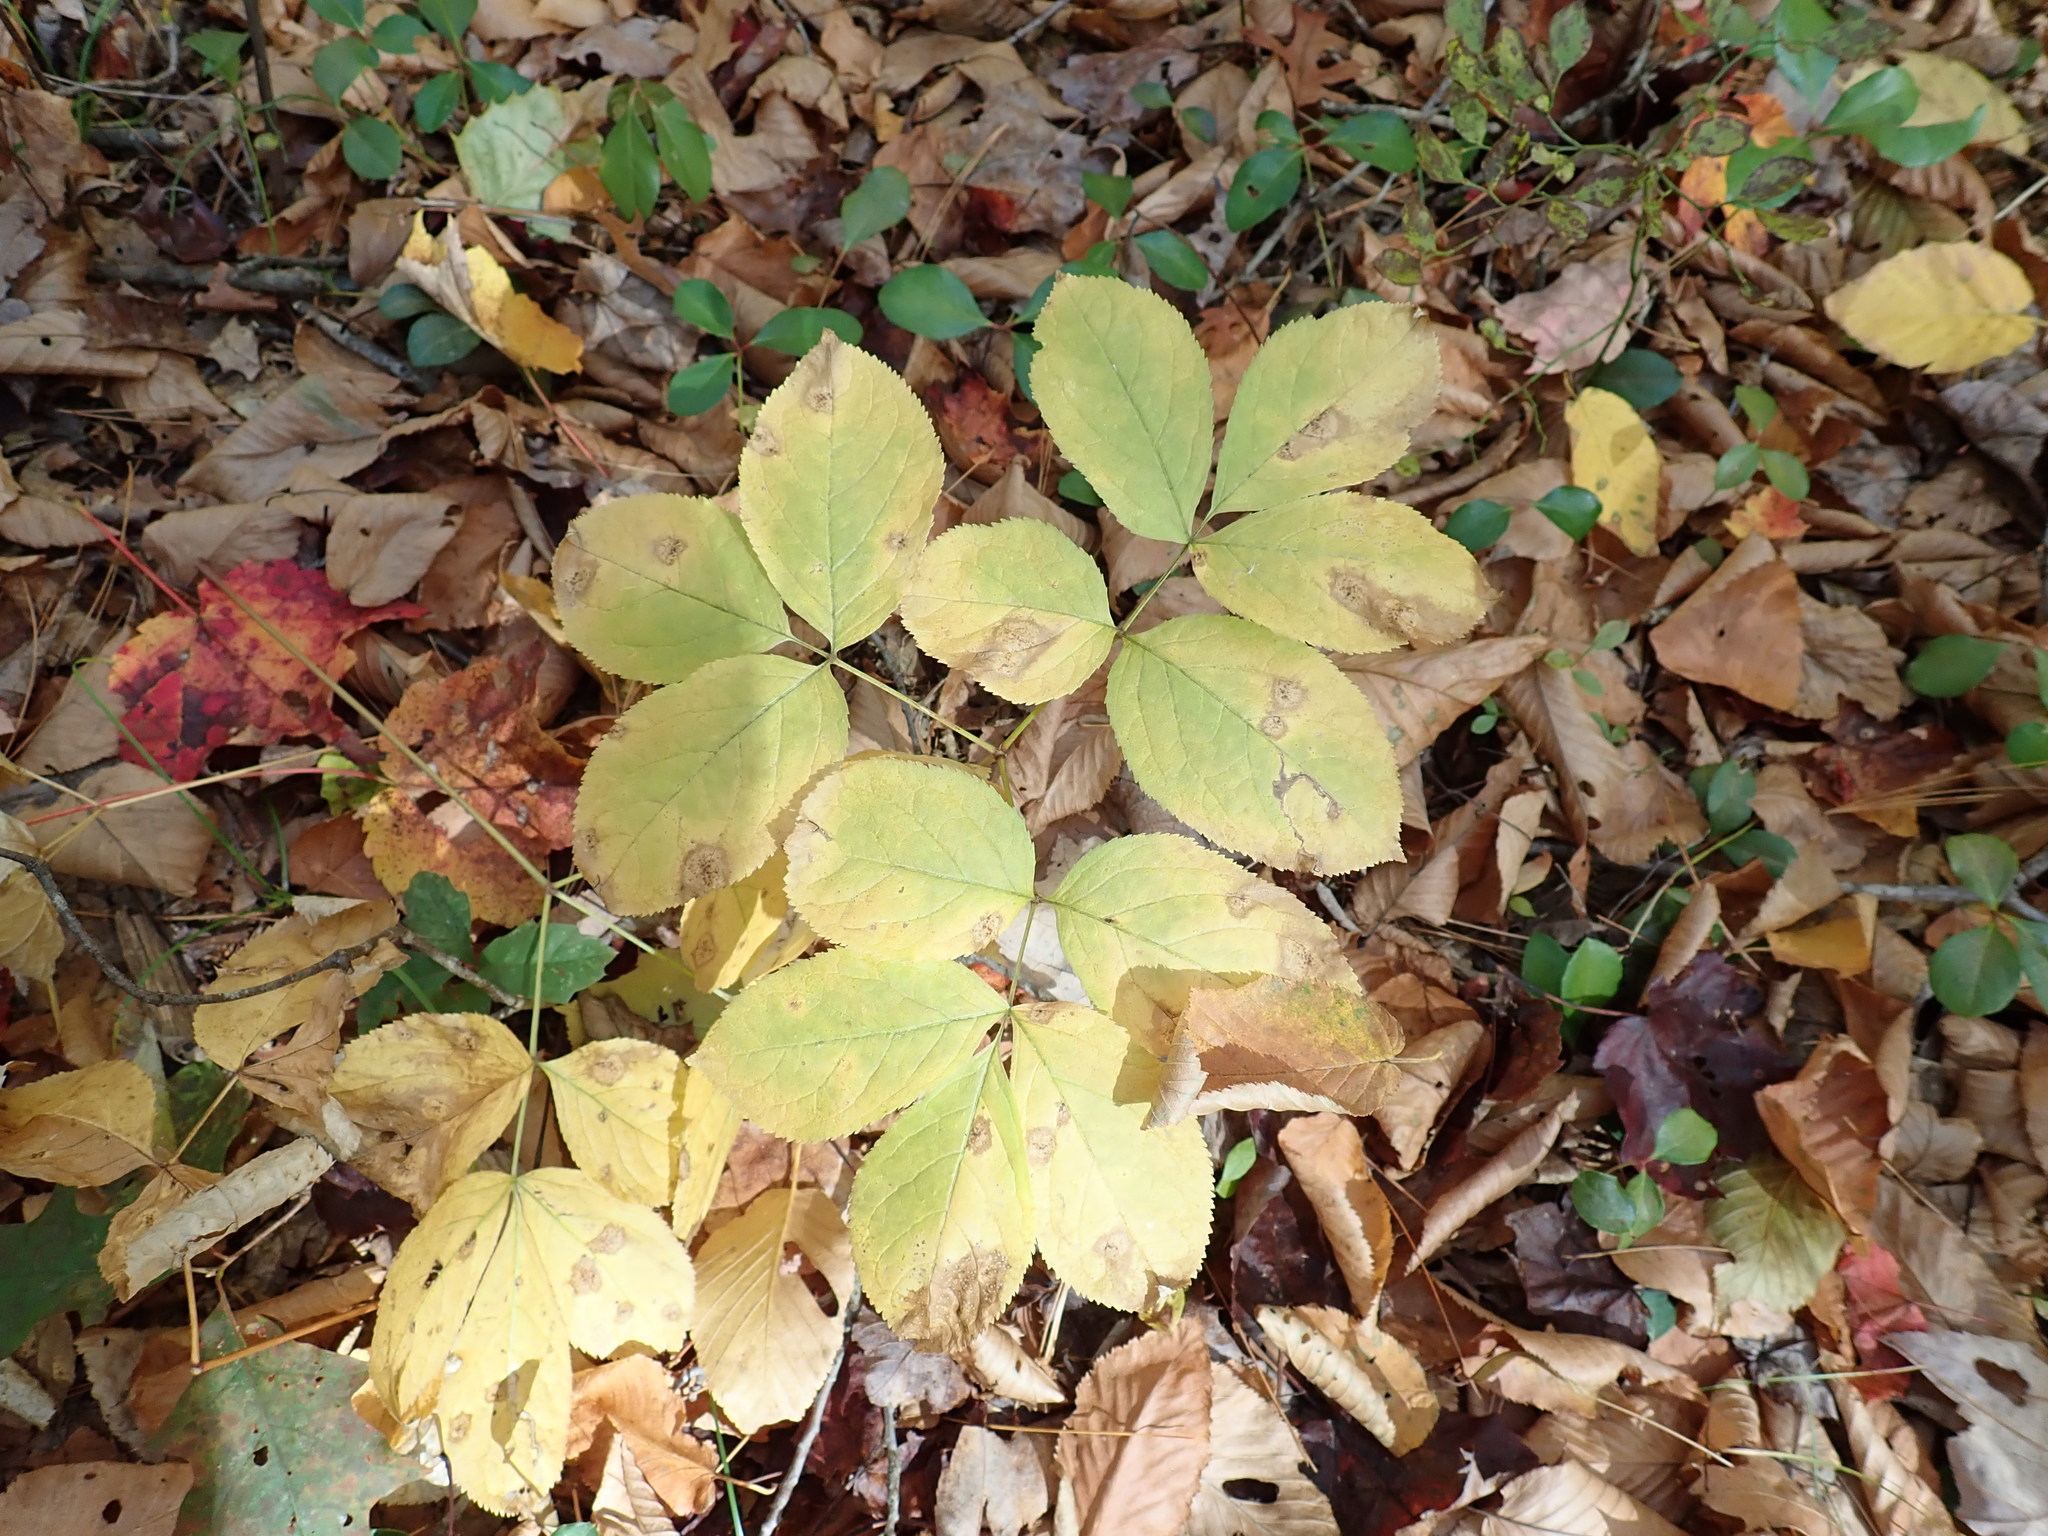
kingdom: Plantae
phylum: Tracheophyta
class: Magnoliopsida
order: Apiales
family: Araliaceae
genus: Aralia
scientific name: Aralia nudicaulis
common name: Wild sarsaparilla
